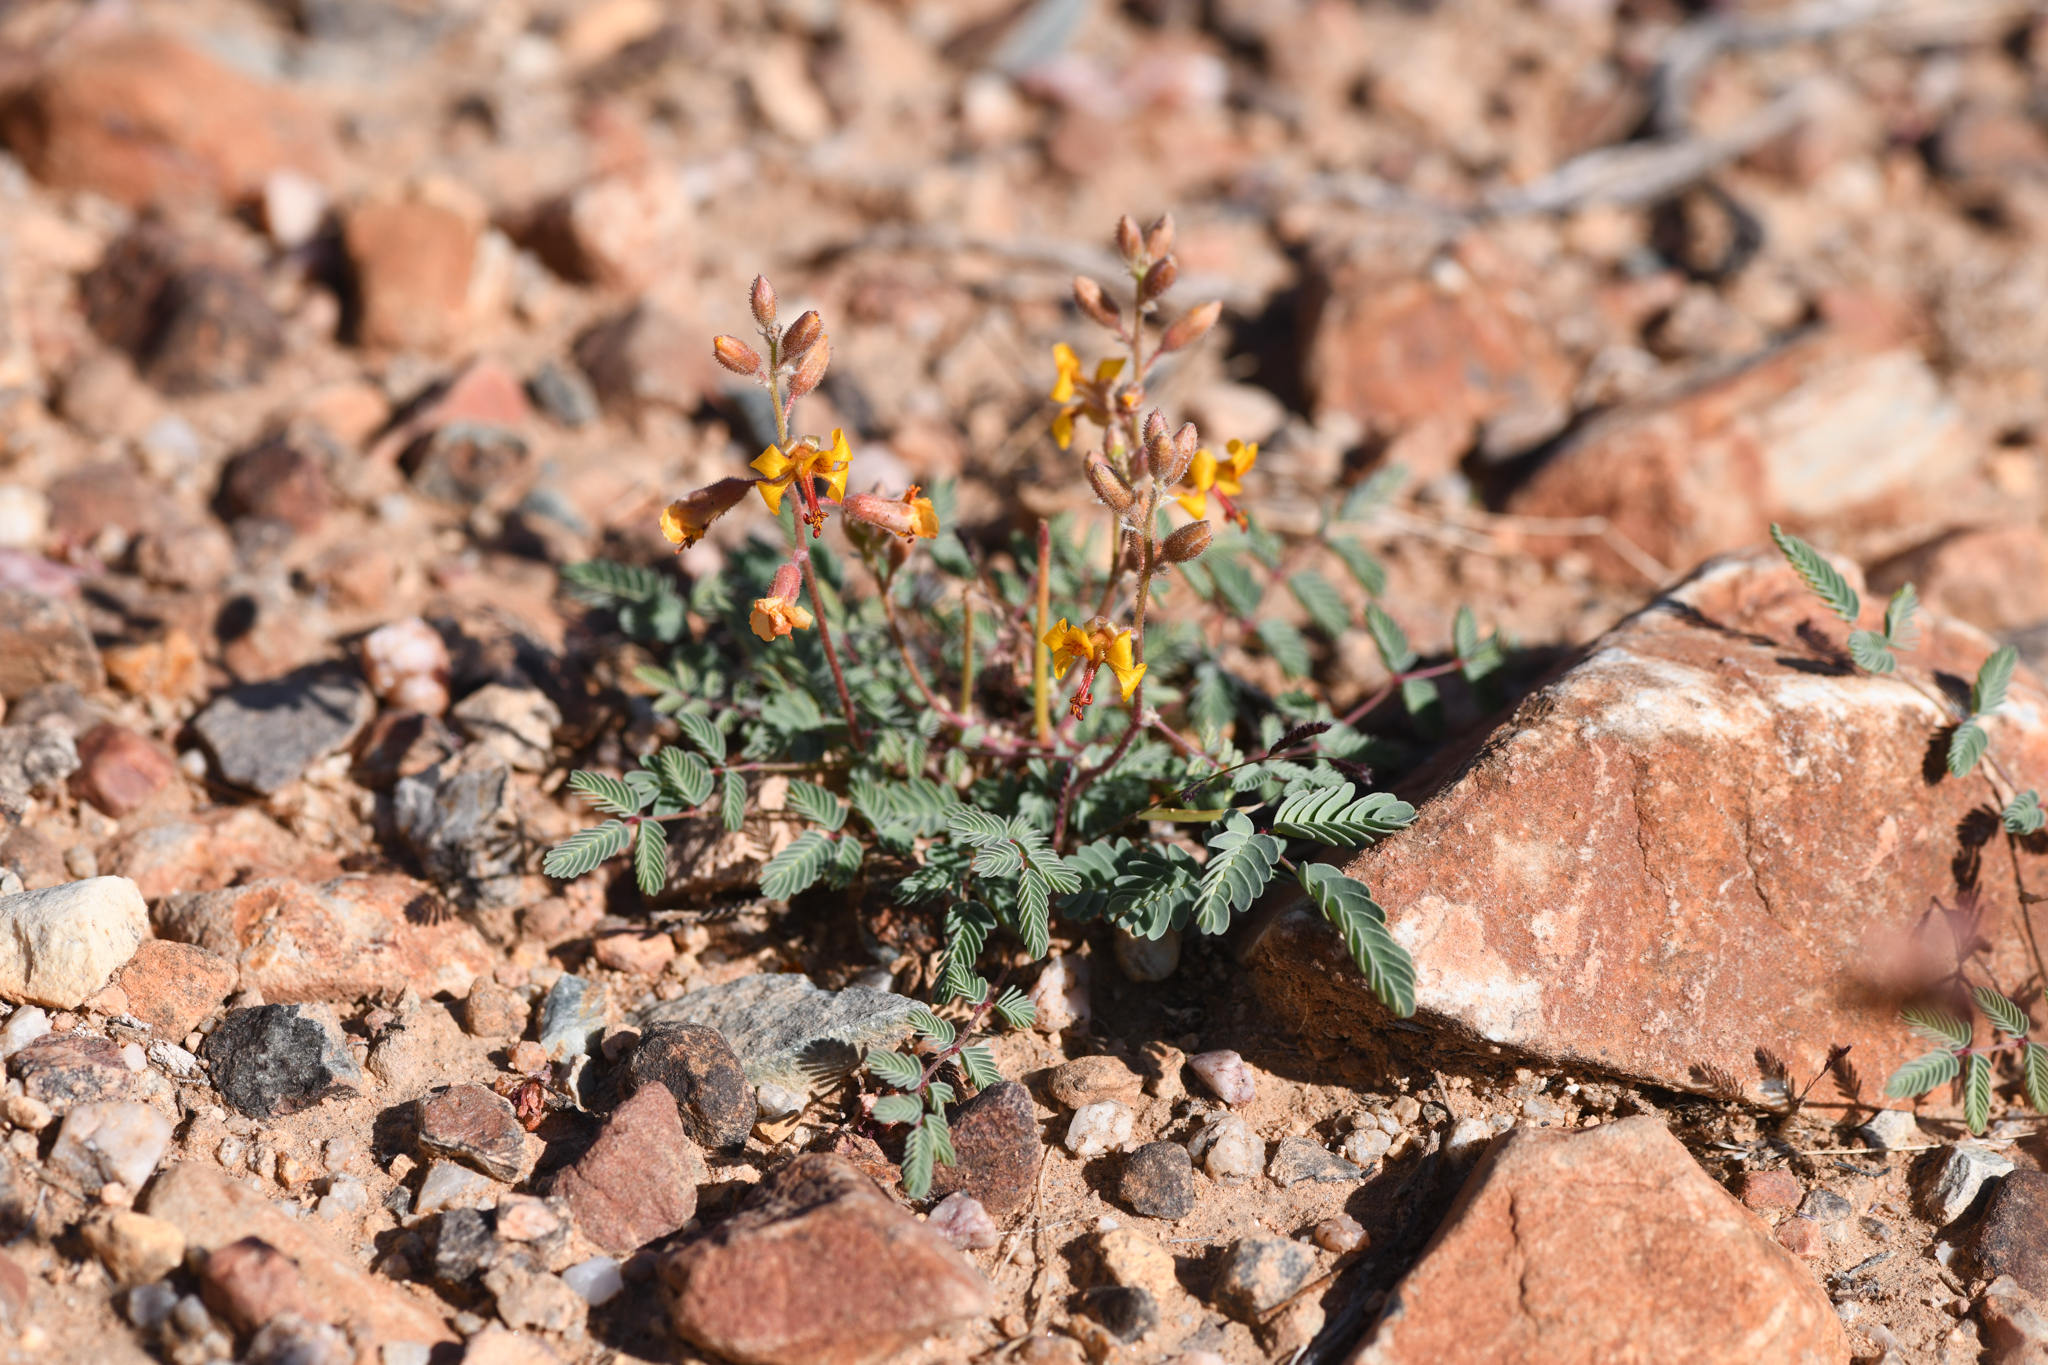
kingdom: Plantae
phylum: Tracheophyta
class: Magnoliopsida
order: Fabales
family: Fabaceae
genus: Hoffmannseggia
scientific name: Hoffmannseggia glauca
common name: Pignut
